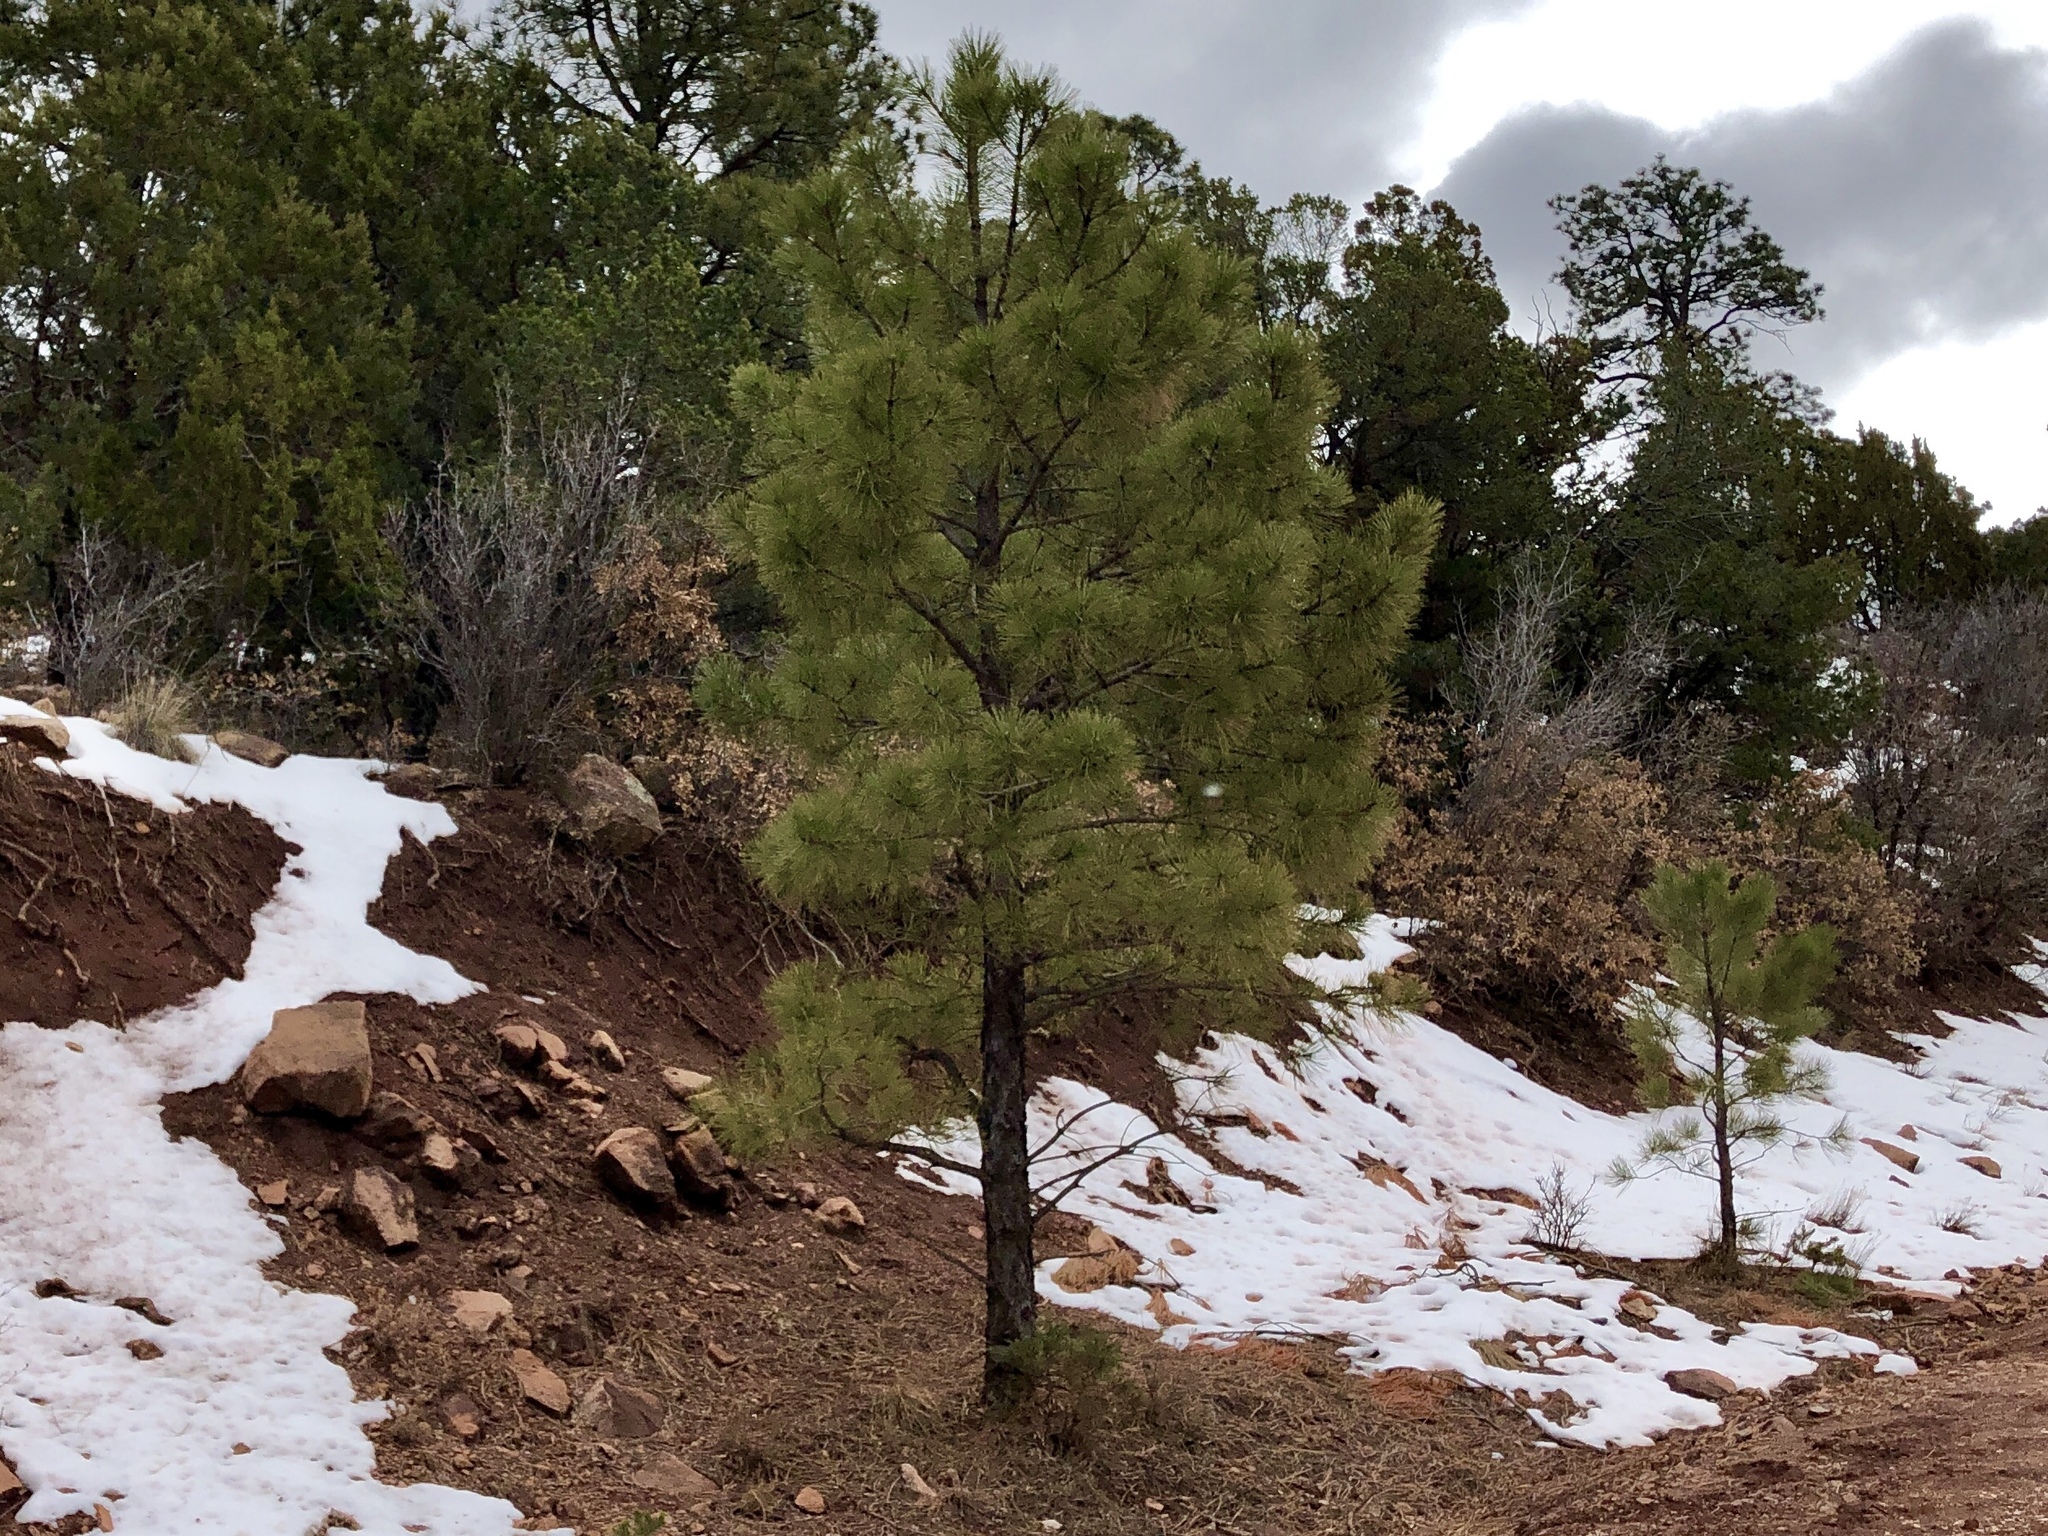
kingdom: Plantae
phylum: Tracheophyta
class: Pinopsida
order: Pinales
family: Pinaceae
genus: Pinus
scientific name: Pinus ponderosa
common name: Western yellow-pine
